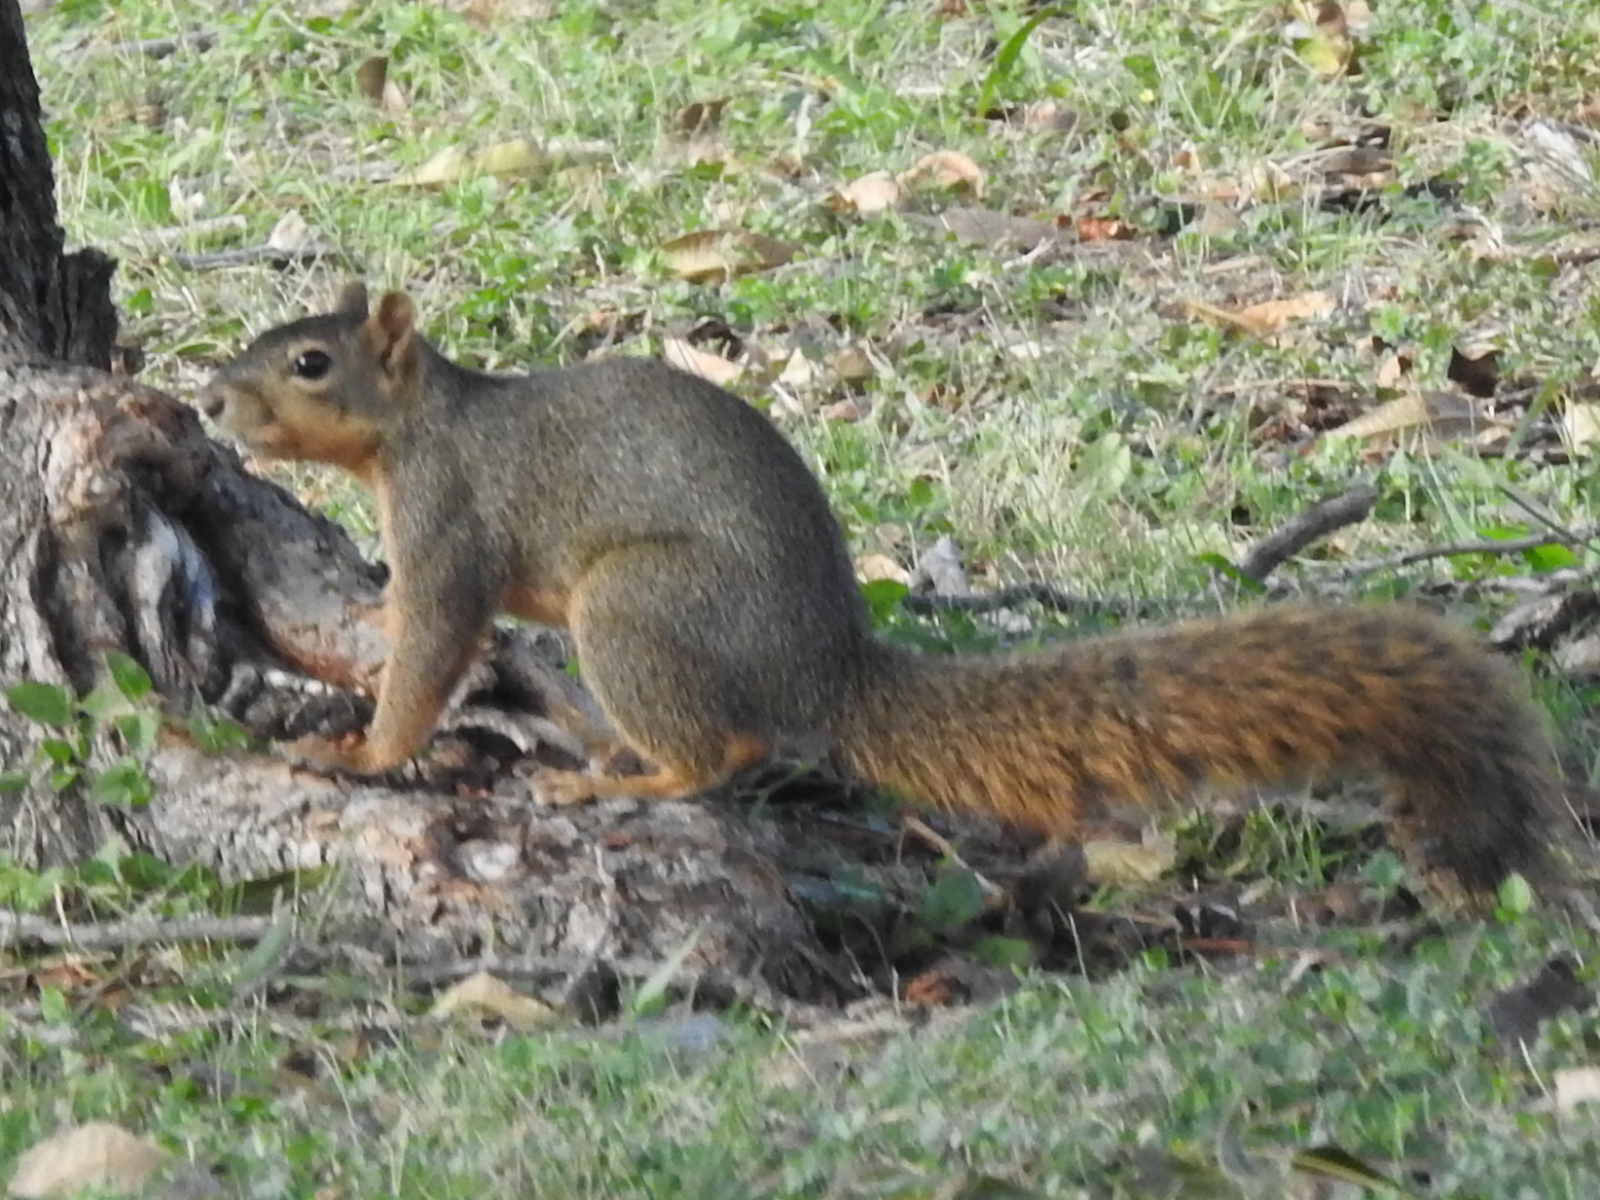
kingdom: Animalia
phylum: Chordata
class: Mammalia
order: Rodentia
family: Sciuridae
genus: Sciurus
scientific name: Sciurus niger
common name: Fox squirrel
